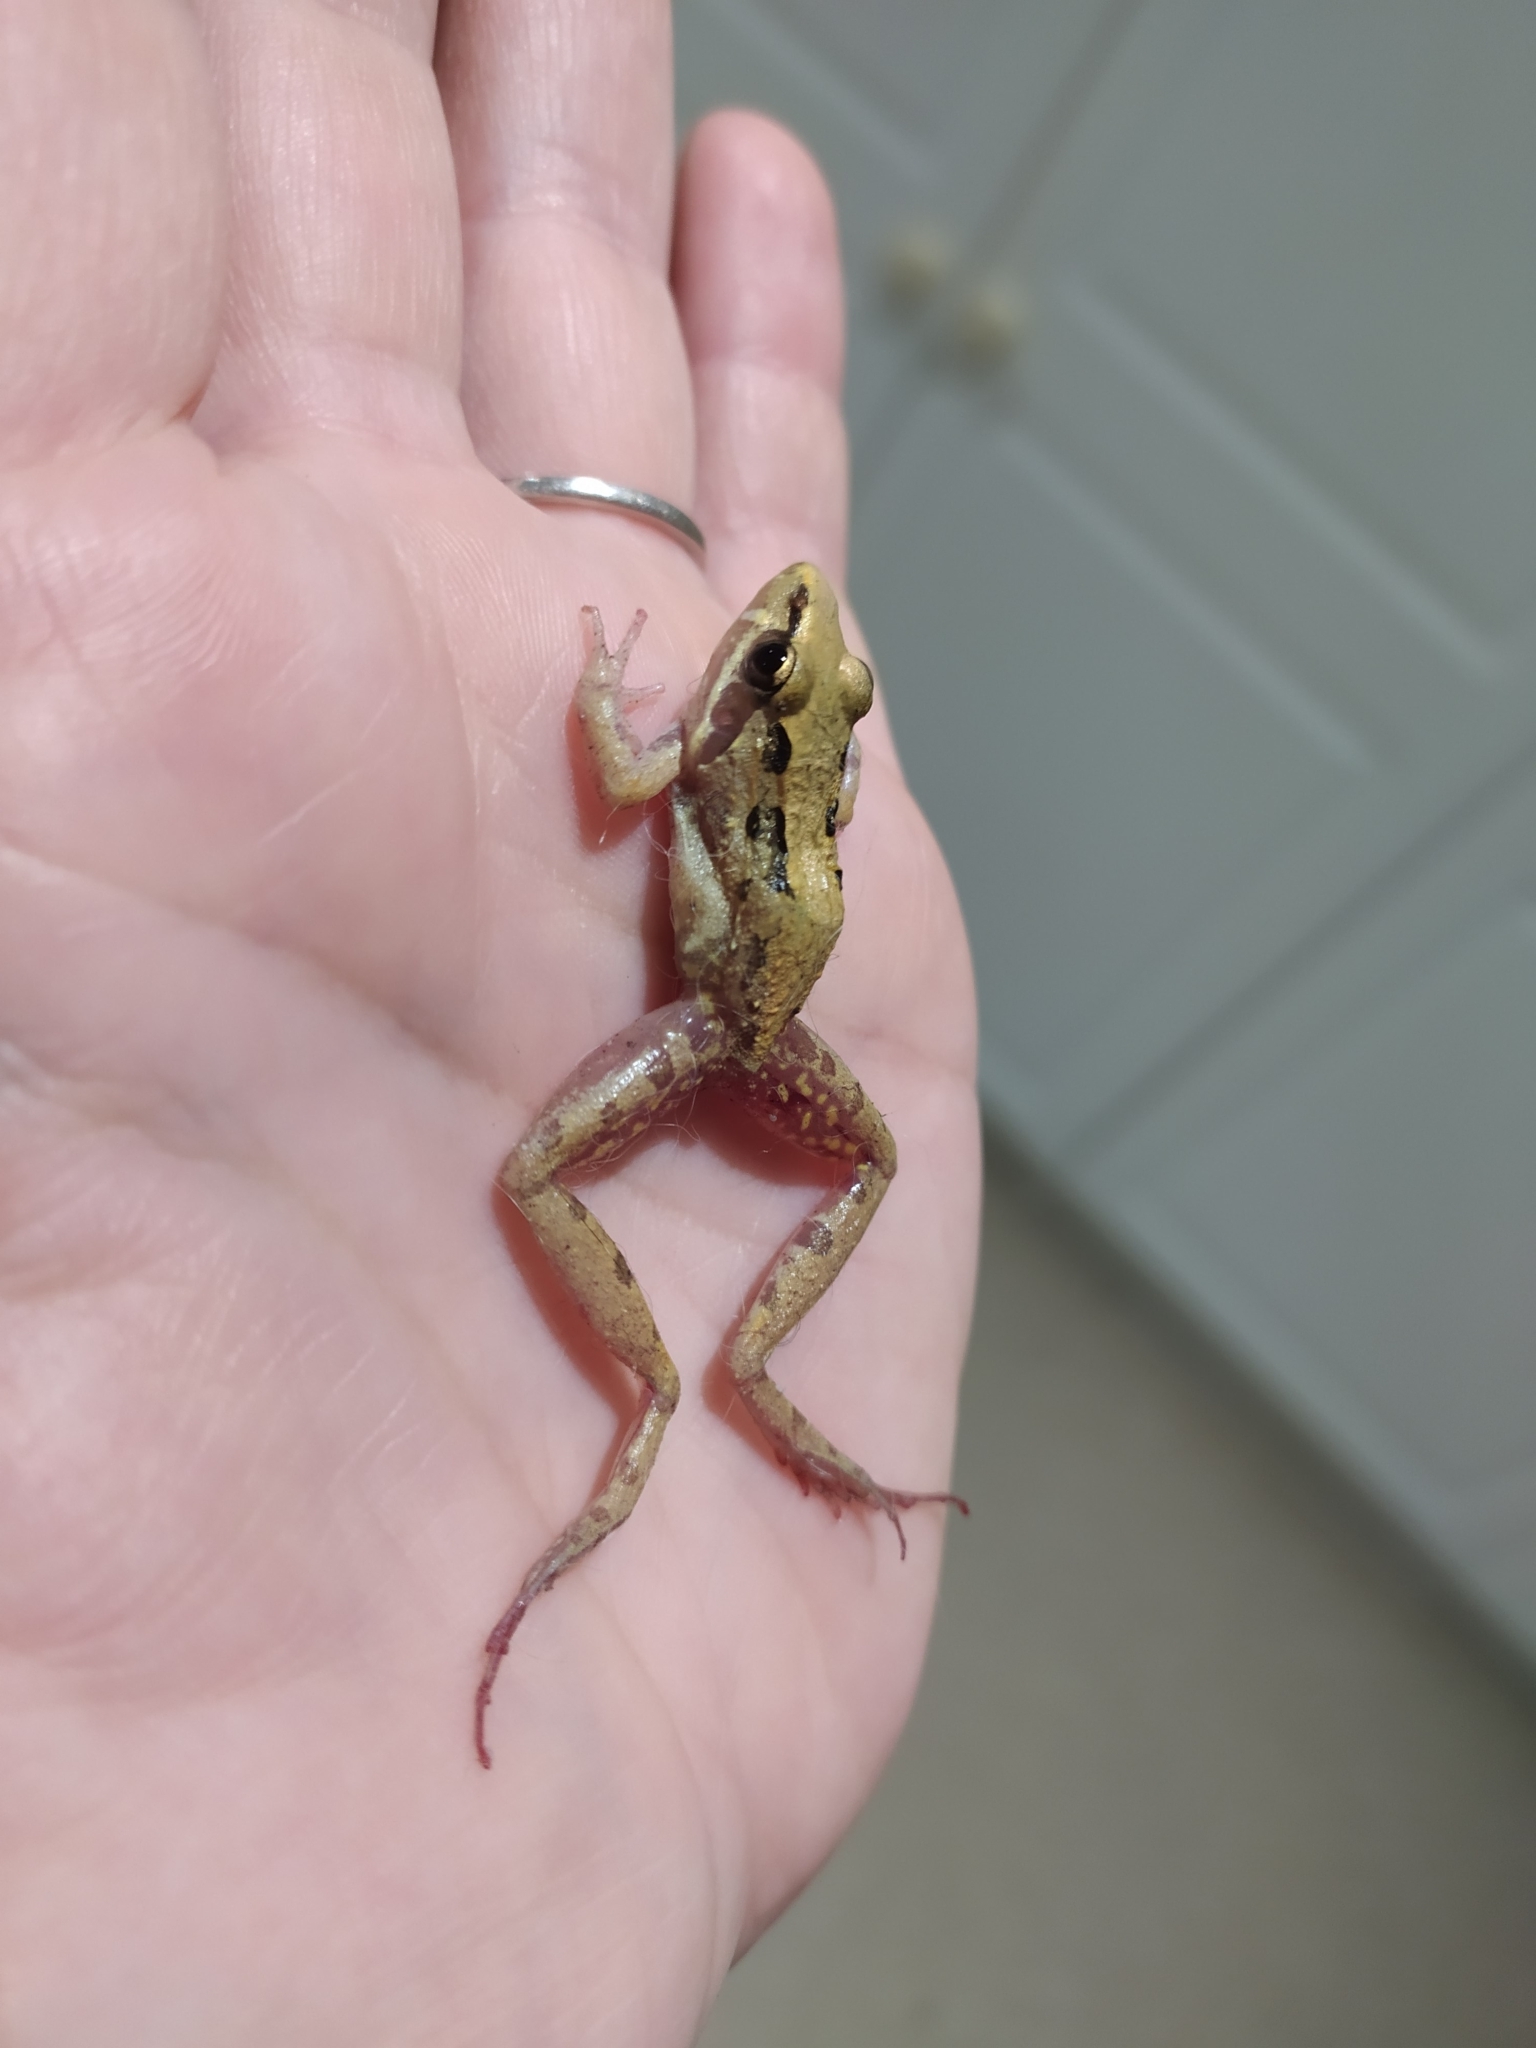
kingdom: Animalia
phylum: Chordata
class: Amphibia
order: Anura
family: Pyxicephalidae
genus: Strongylopus
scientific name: Strongylopus grayii
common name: Gray's stream frog
